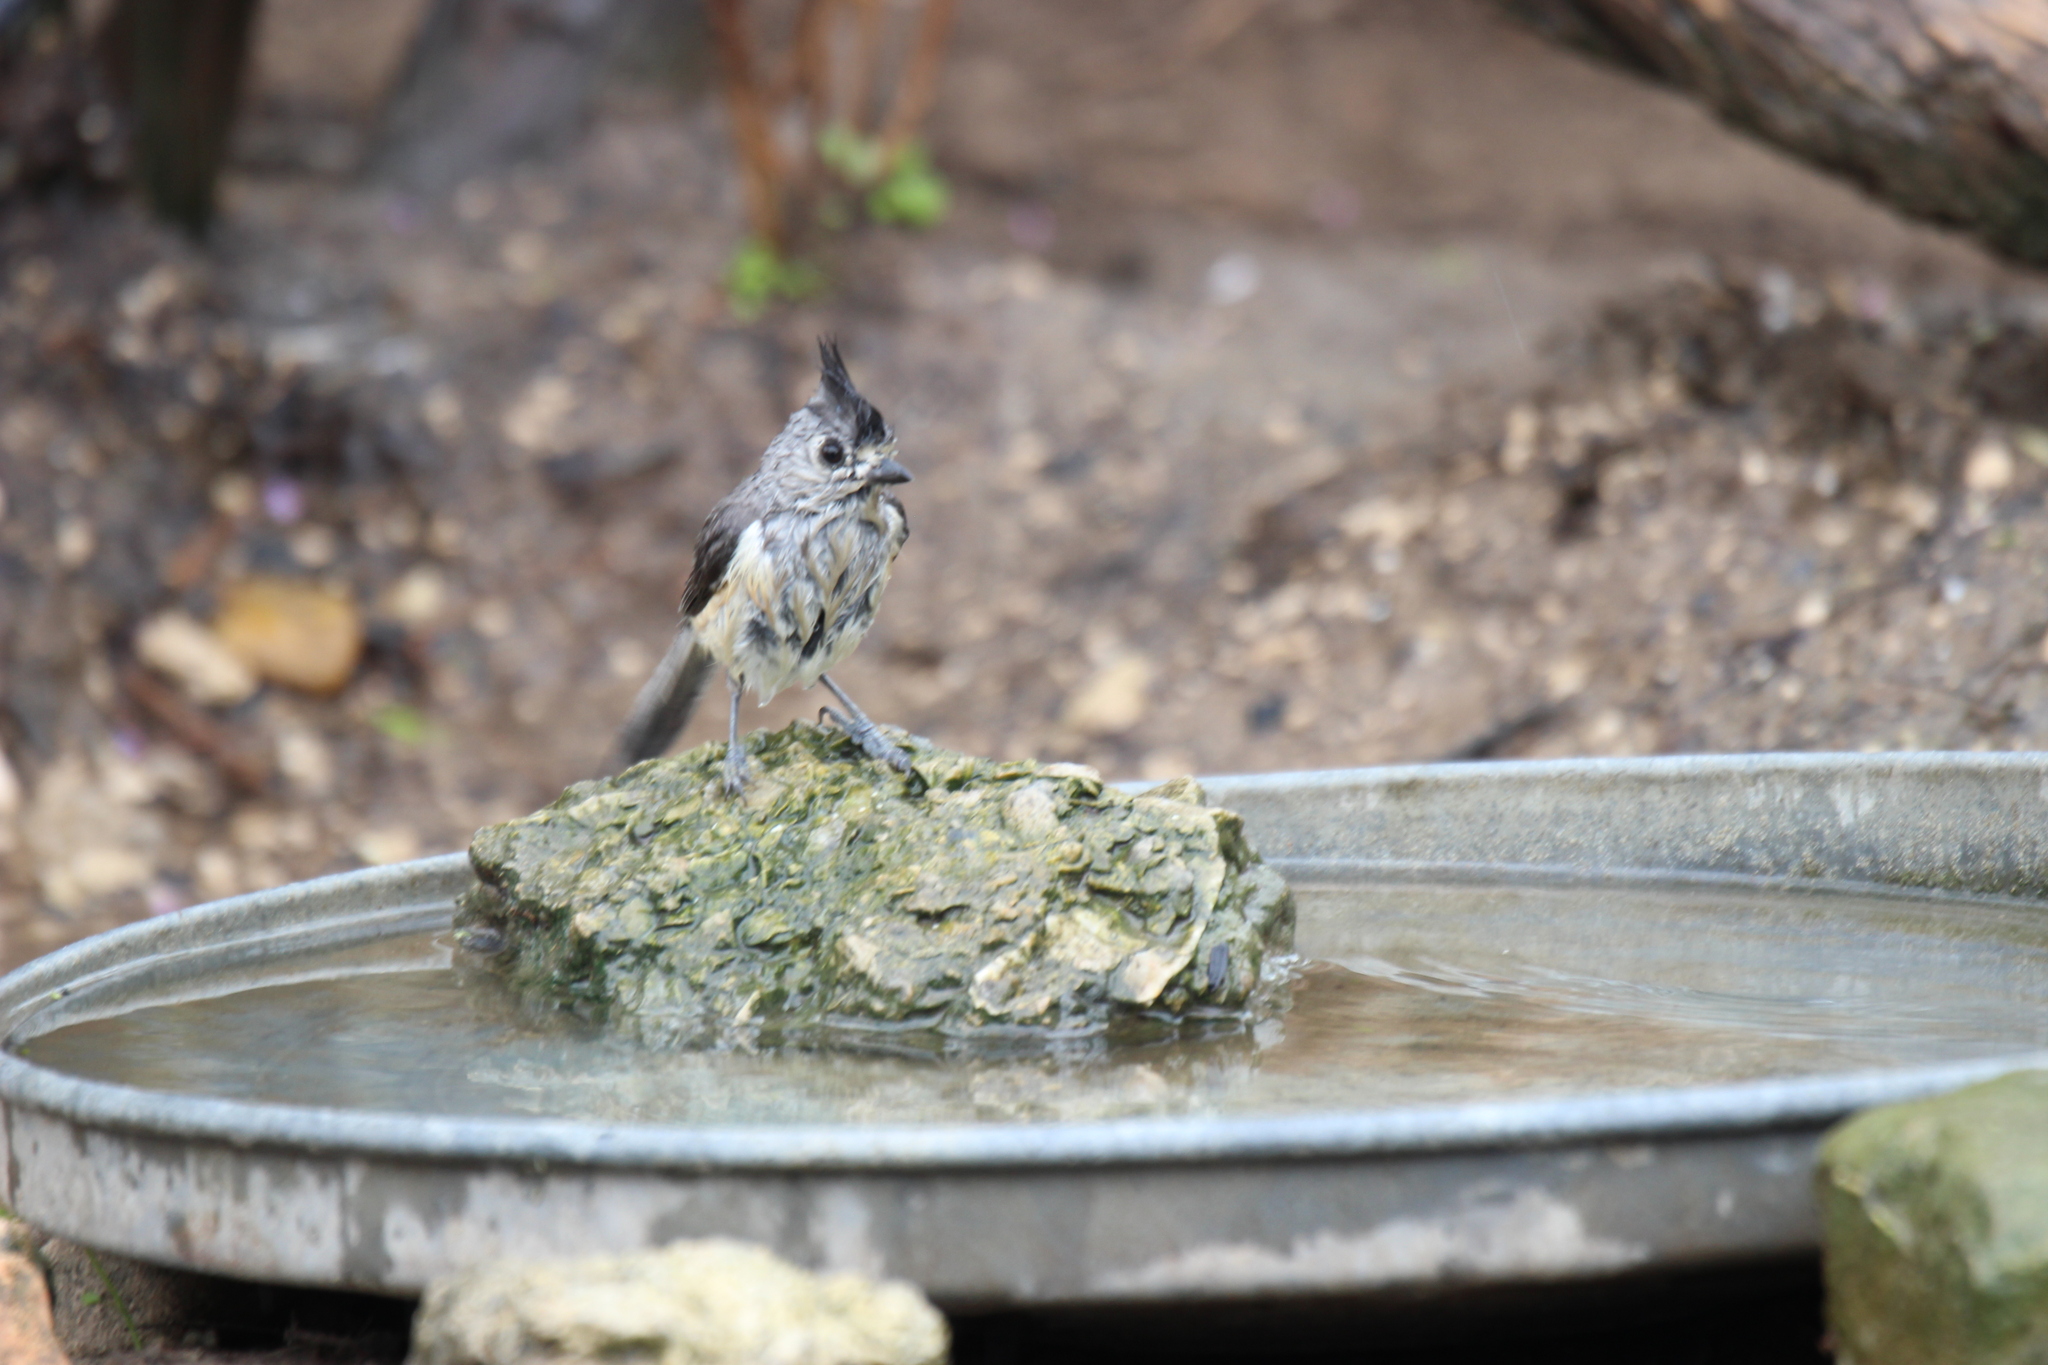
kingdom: Animalia
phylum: Chordata
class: Aves
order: Passeriformes
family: Paridae
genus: Baeolophus
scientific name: Baeolophus atricristatus
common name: Black-crested titmouse
